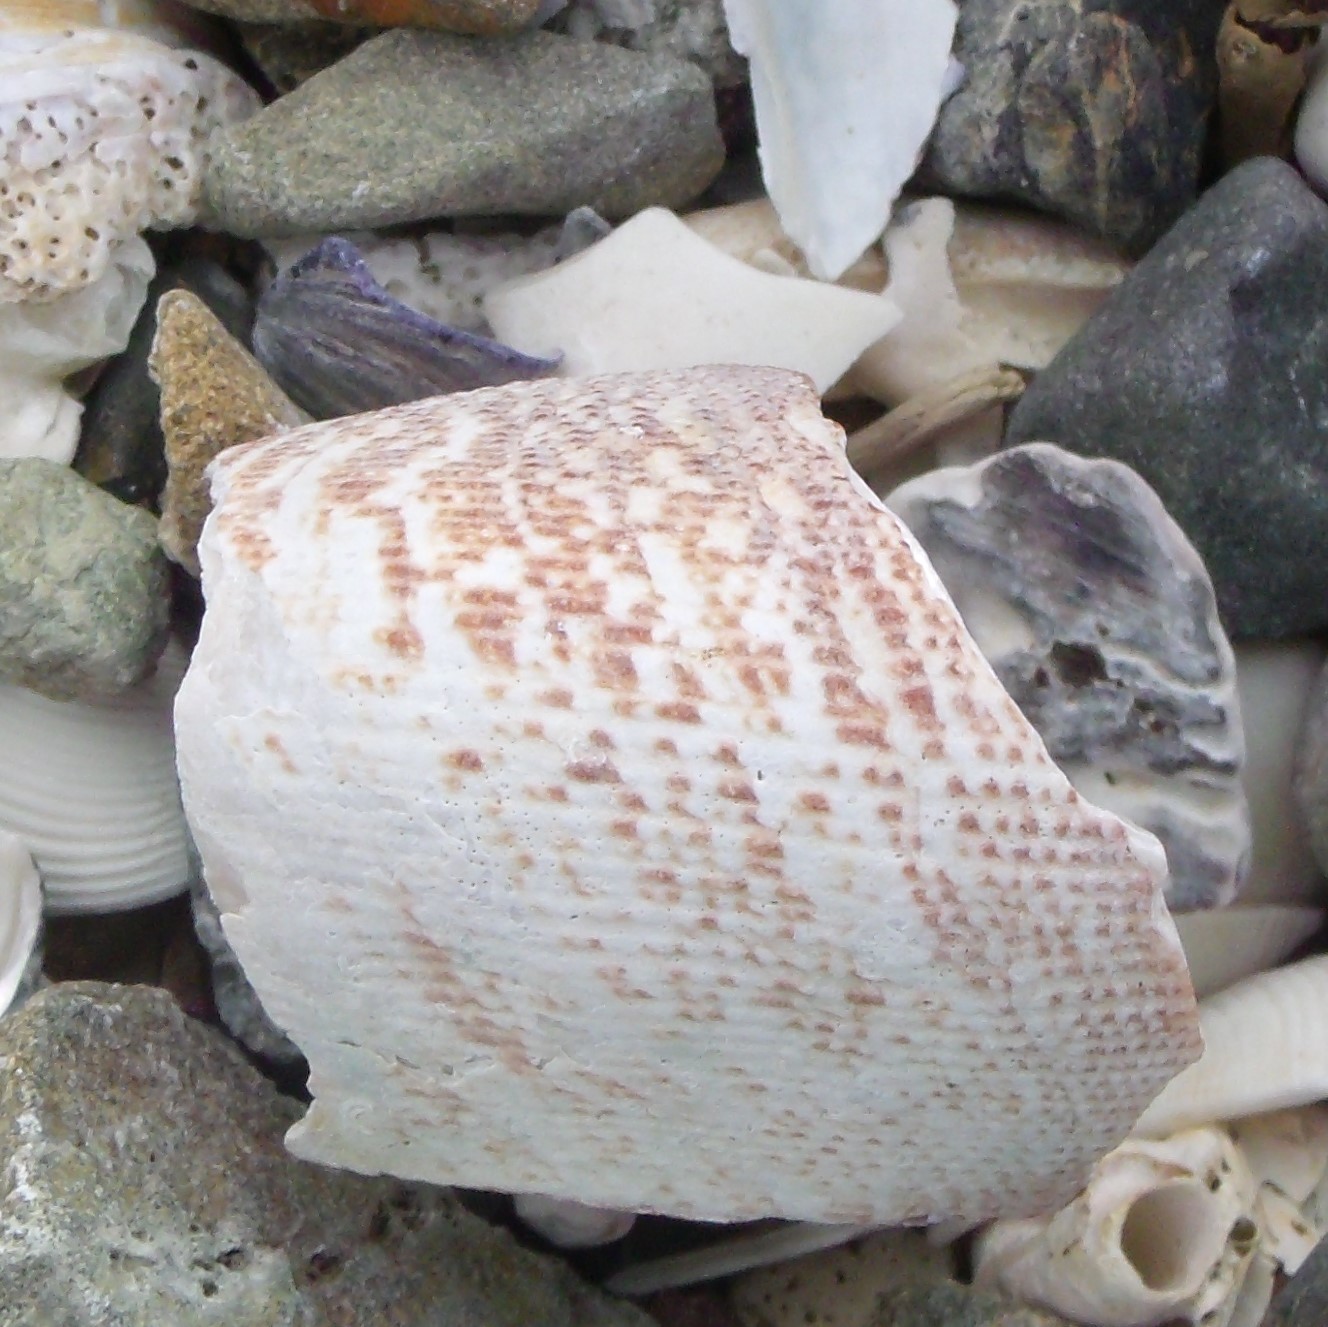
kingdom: Animalia
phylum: Mollusca
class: Gastropoda
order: Trochida
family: Calliostomatidae
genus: Maurea
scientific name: Maurea tigris
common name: Tiger maurea
